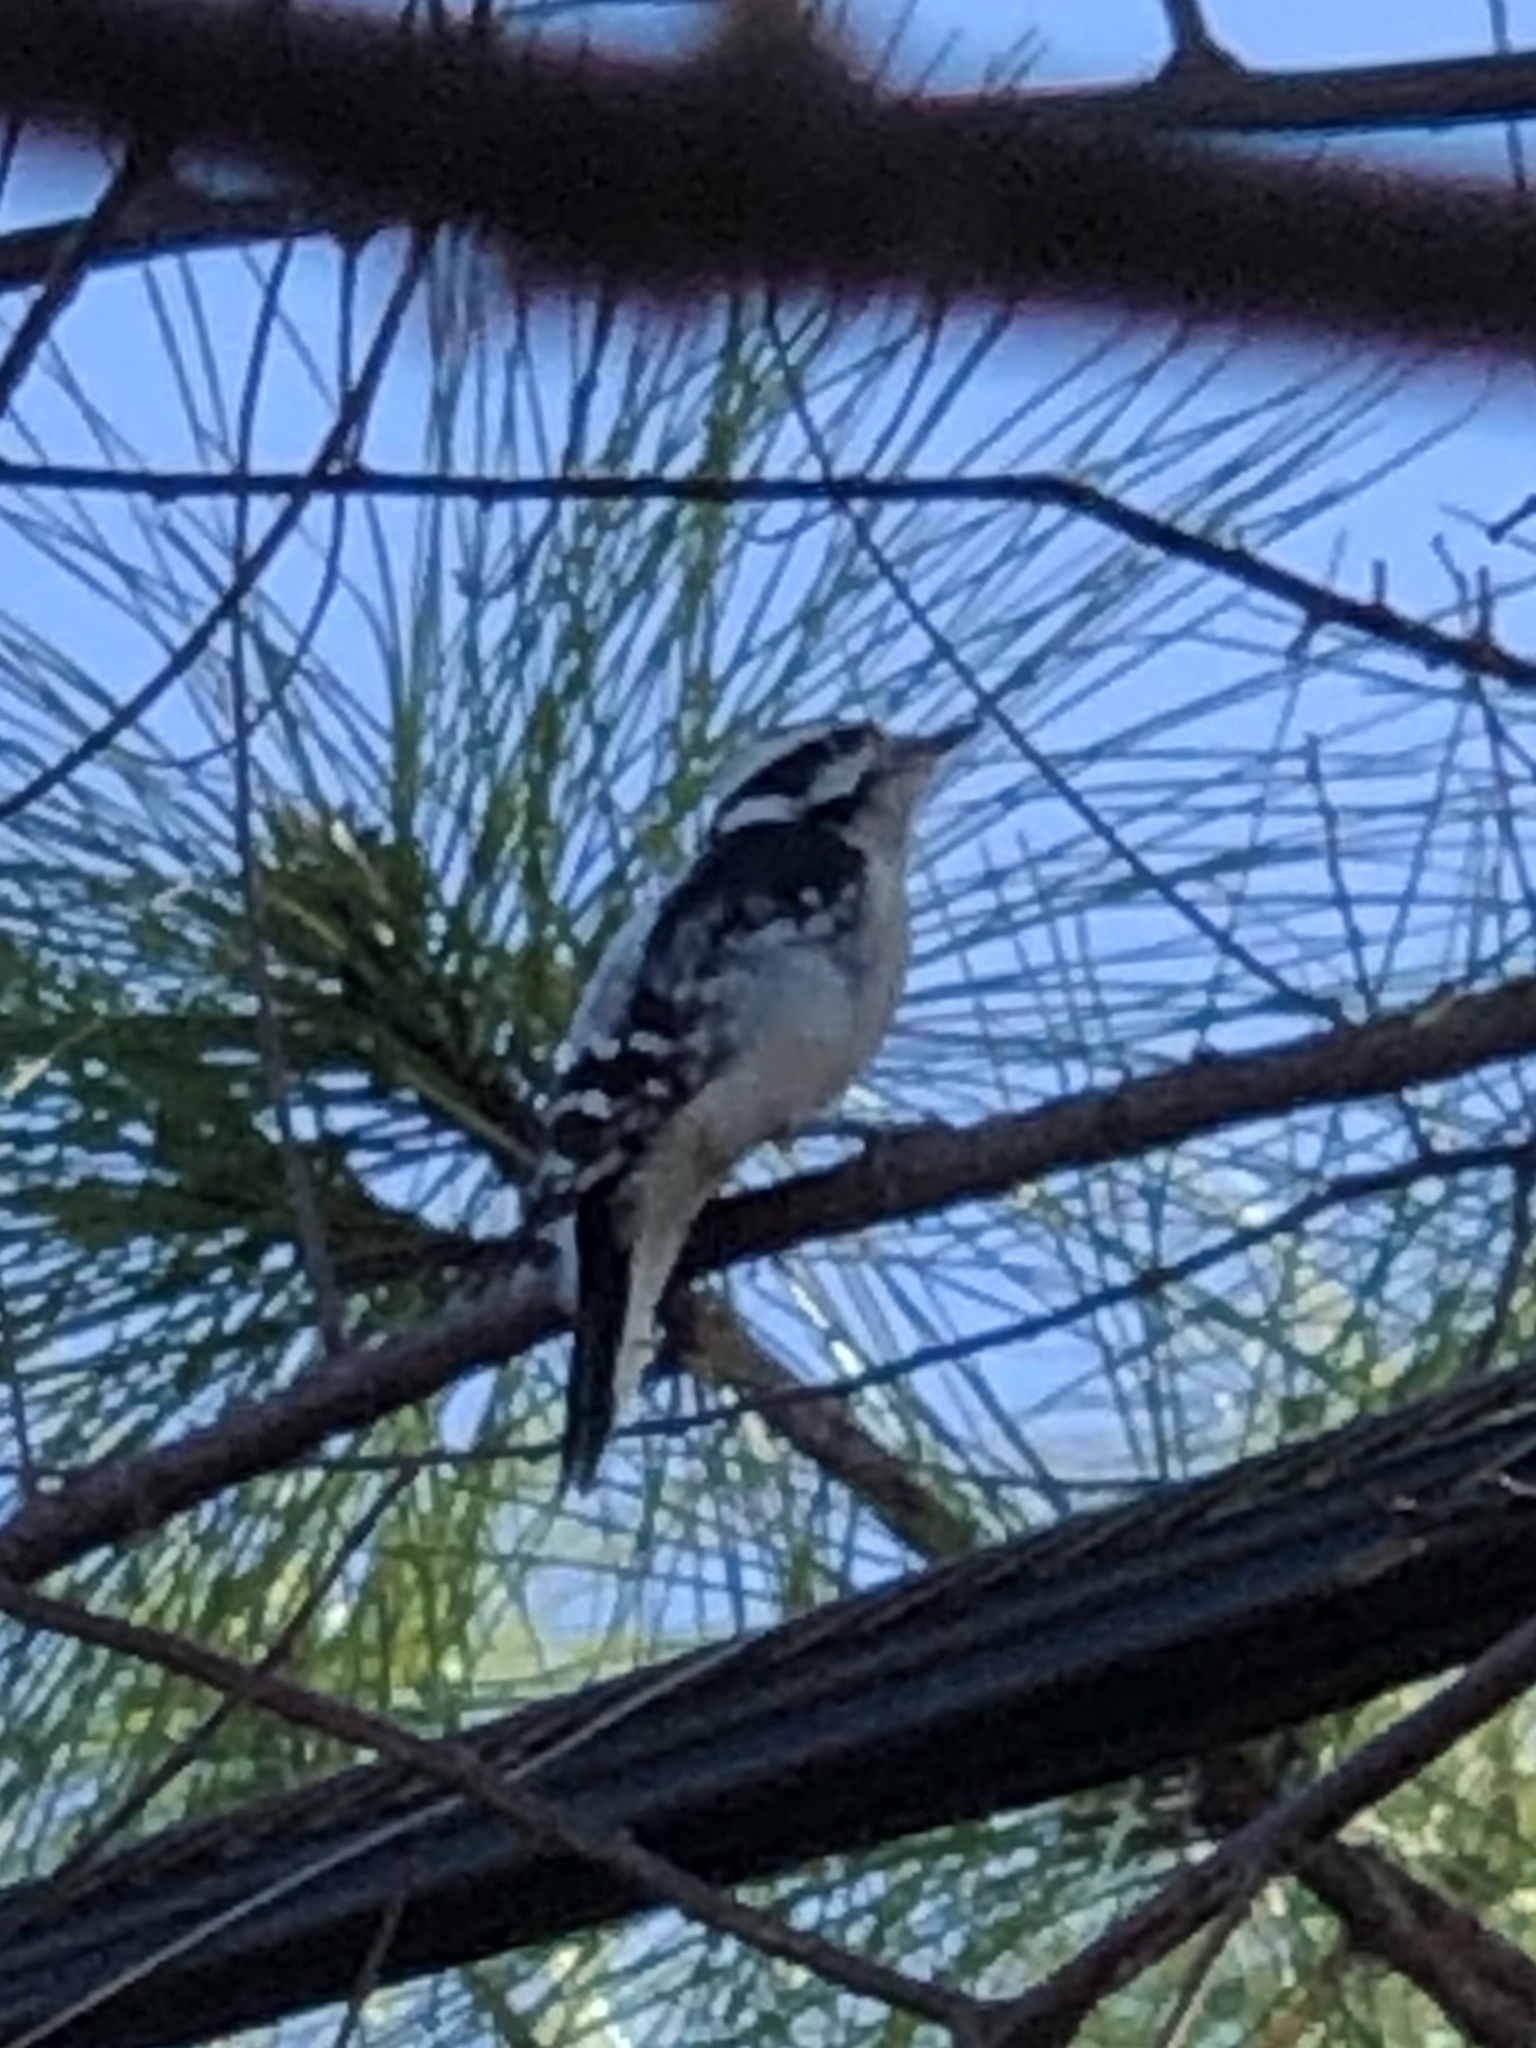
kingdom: Animalia
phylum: Chordata
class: Aves
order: Piciformes
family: Picidae
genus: Dryobates
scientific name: Dryobates pubescens
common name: Downy woodpecker
